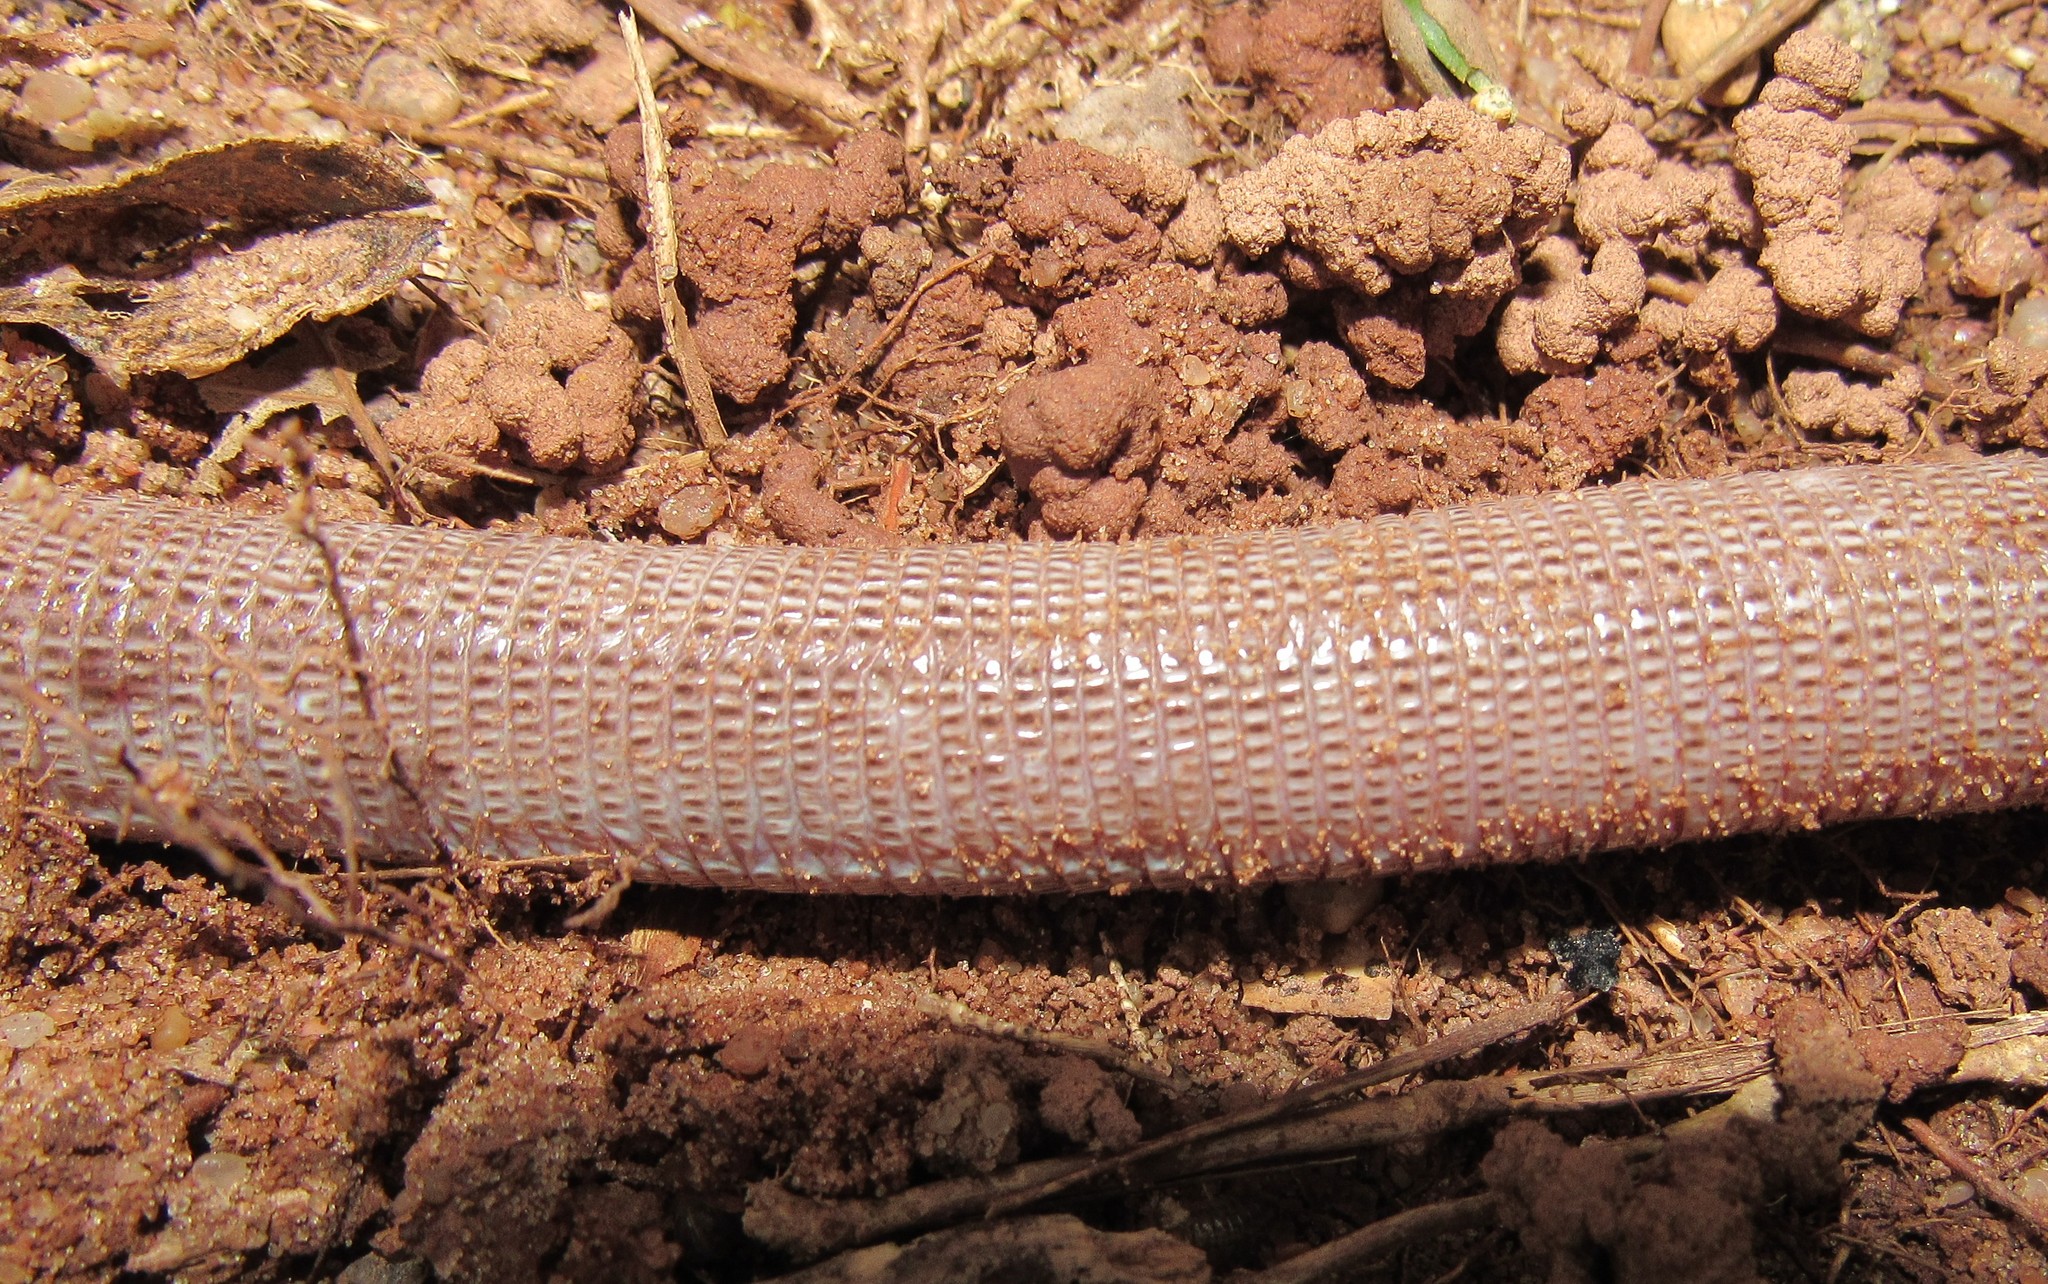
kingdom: Animalia
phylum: Chordata
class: Squamata
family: Amphisbaenidae
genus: Leposternon
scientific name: Leposternon microcephalum
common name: Smallhead worm lizard
